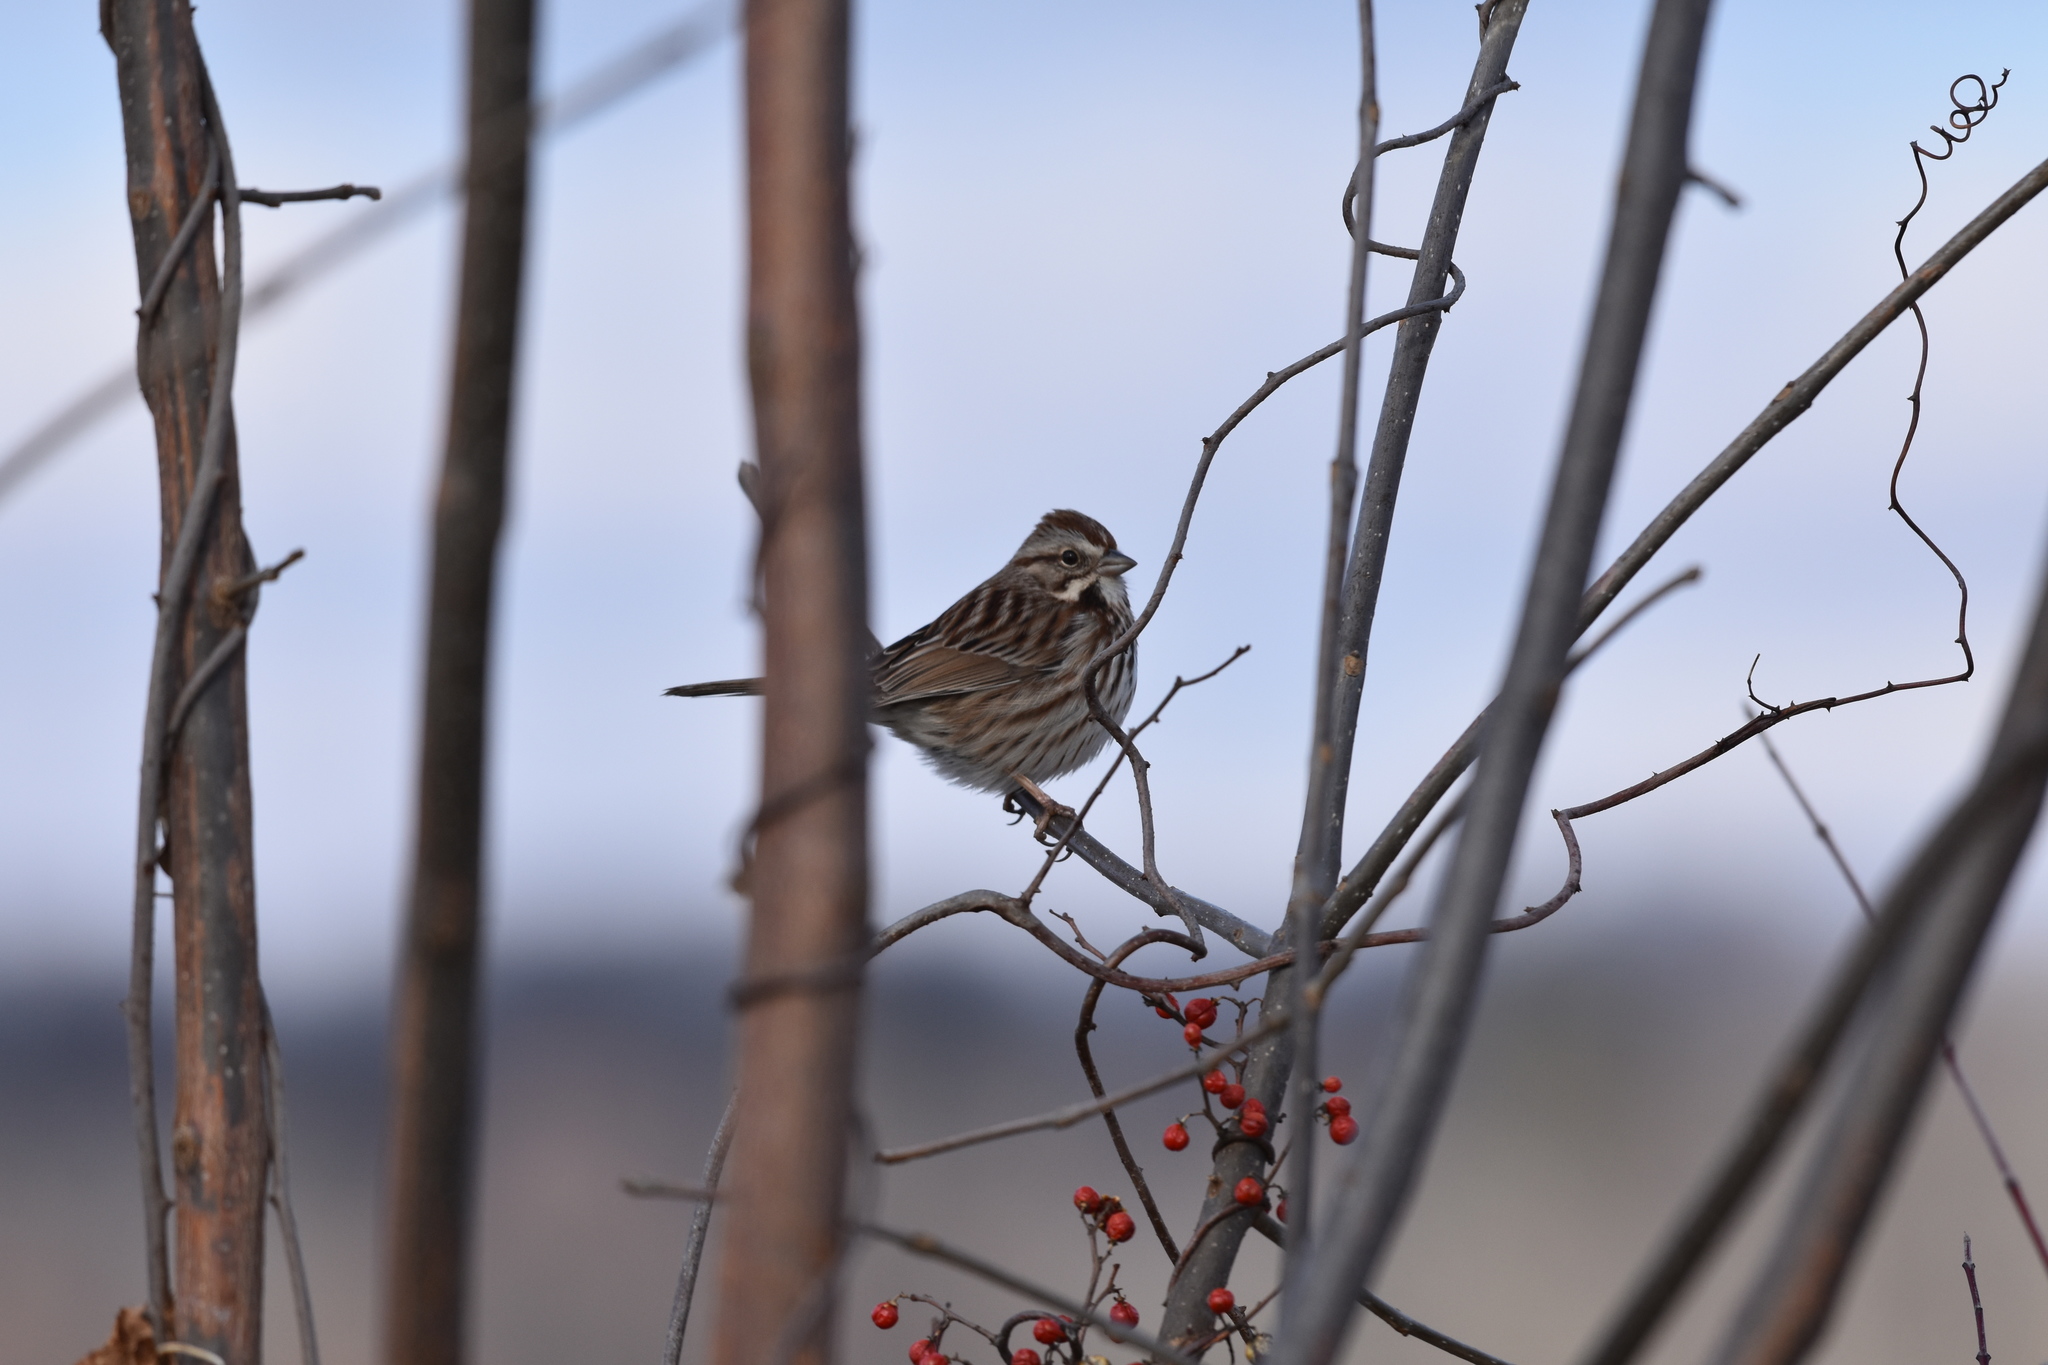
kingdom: Animalia
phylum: Chordata
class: Aves
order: Passeriformes
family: Passerellidae
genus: Melospiza
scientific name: Melospiza melodia
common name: Song sparrow
